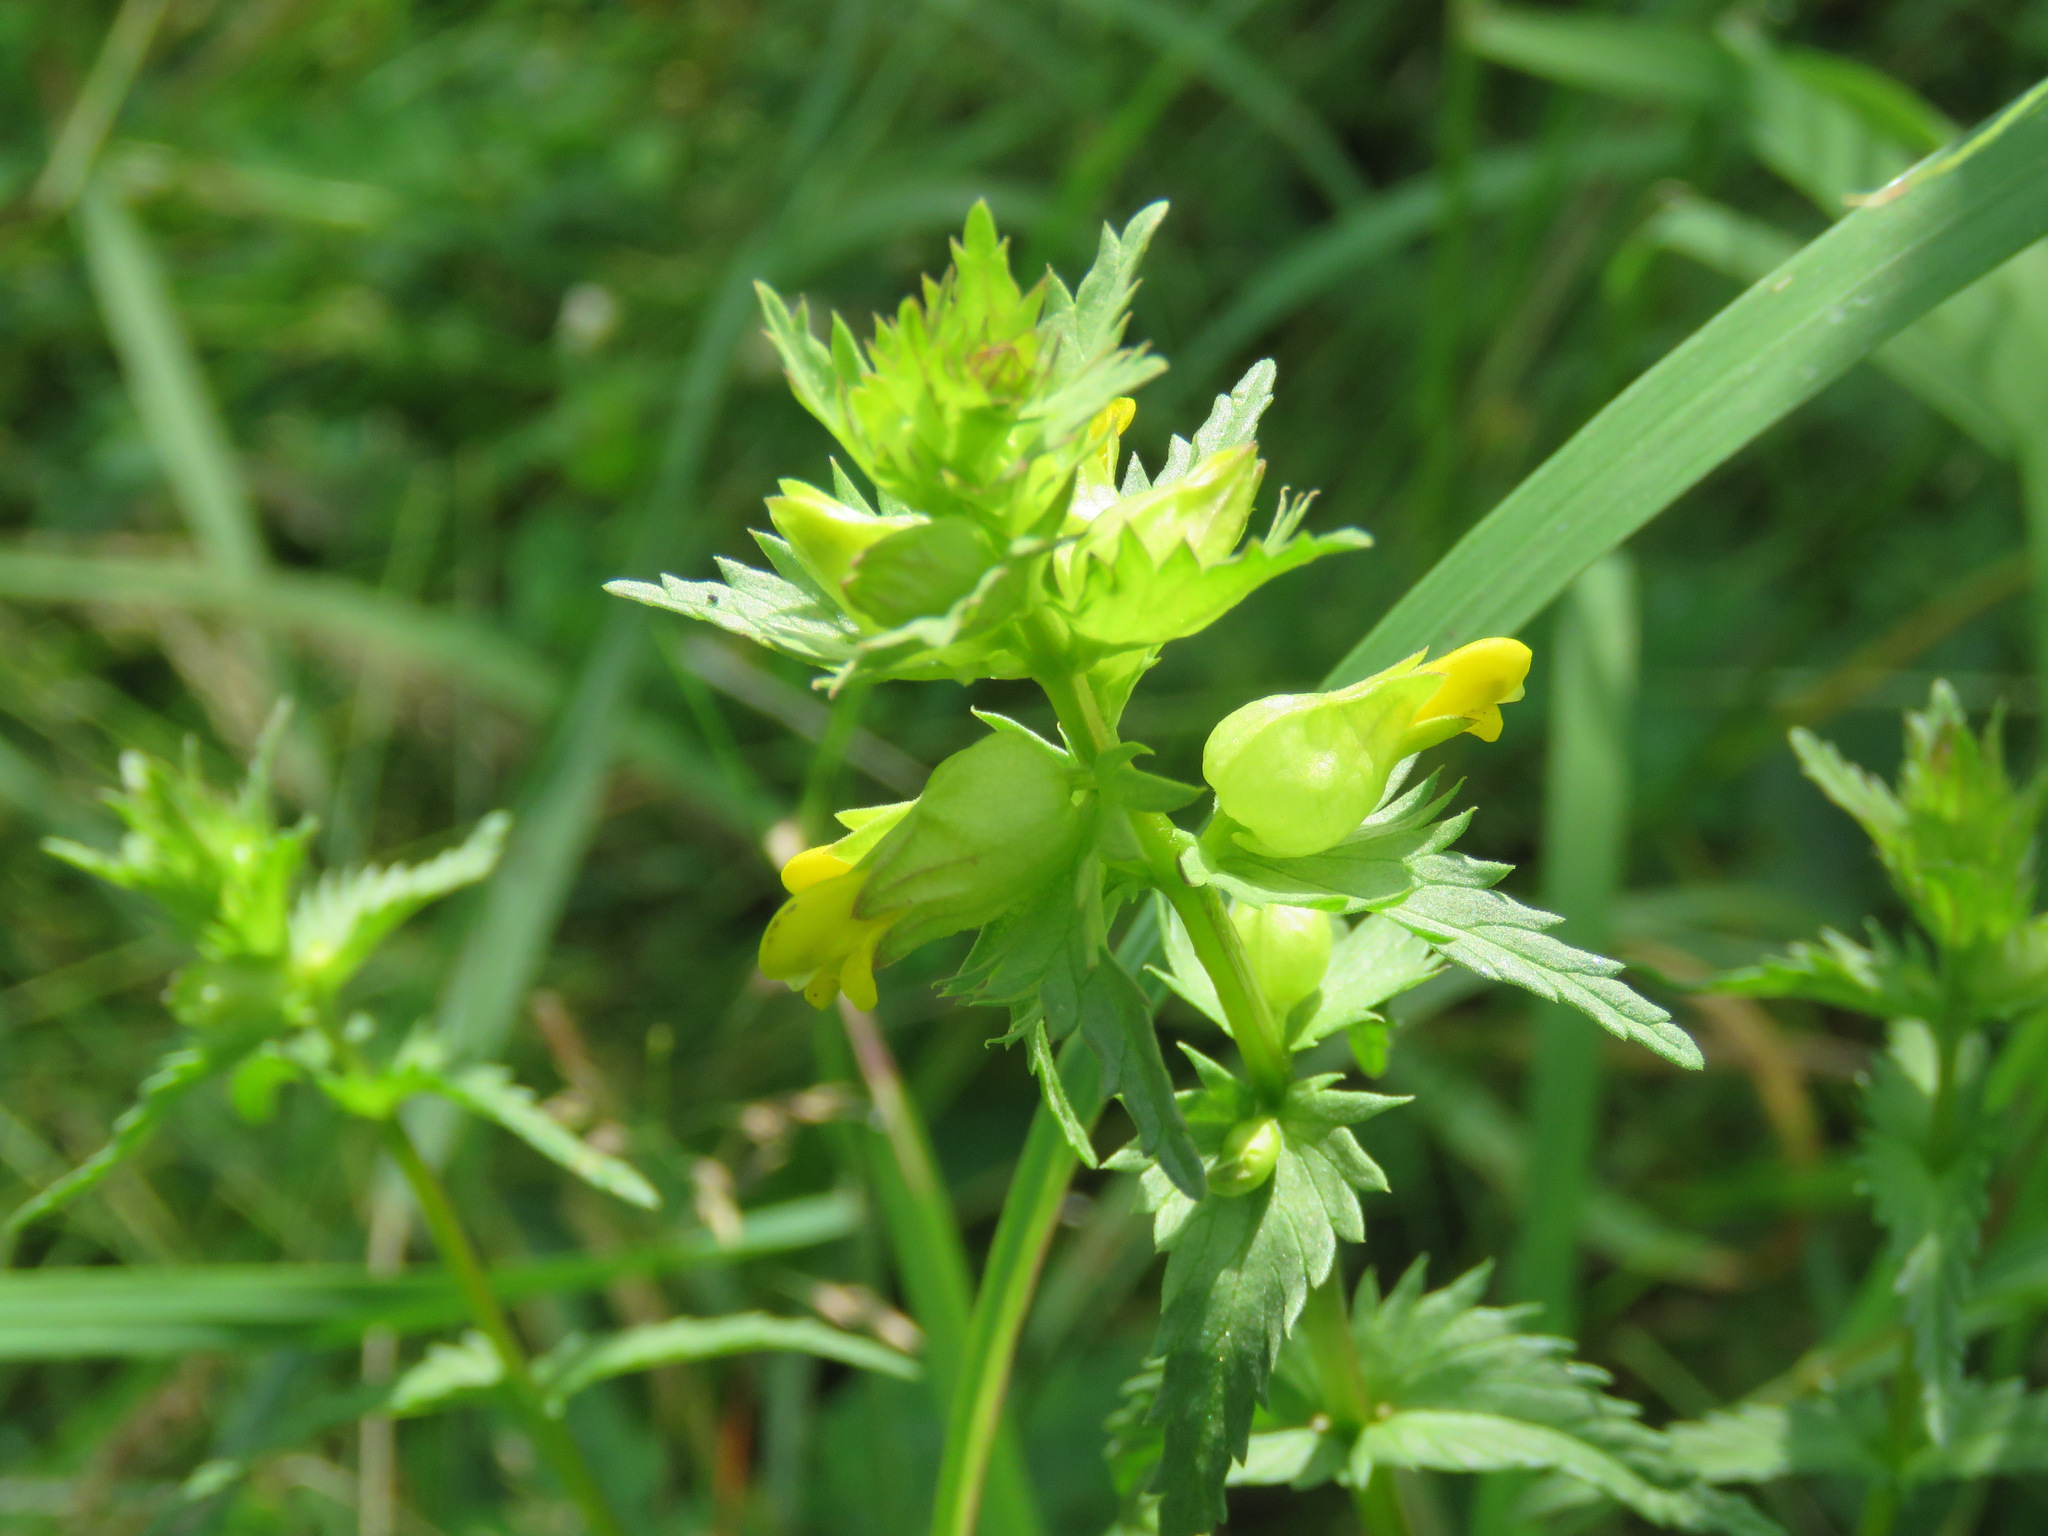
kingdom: Plantae
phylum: Tracheophyta
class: Magnoliopsida
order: Lamiales
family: Orobanchaceae
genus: Rhinanthus
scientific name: Rhinanthus groenlandicus
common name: Little yellow rattle
